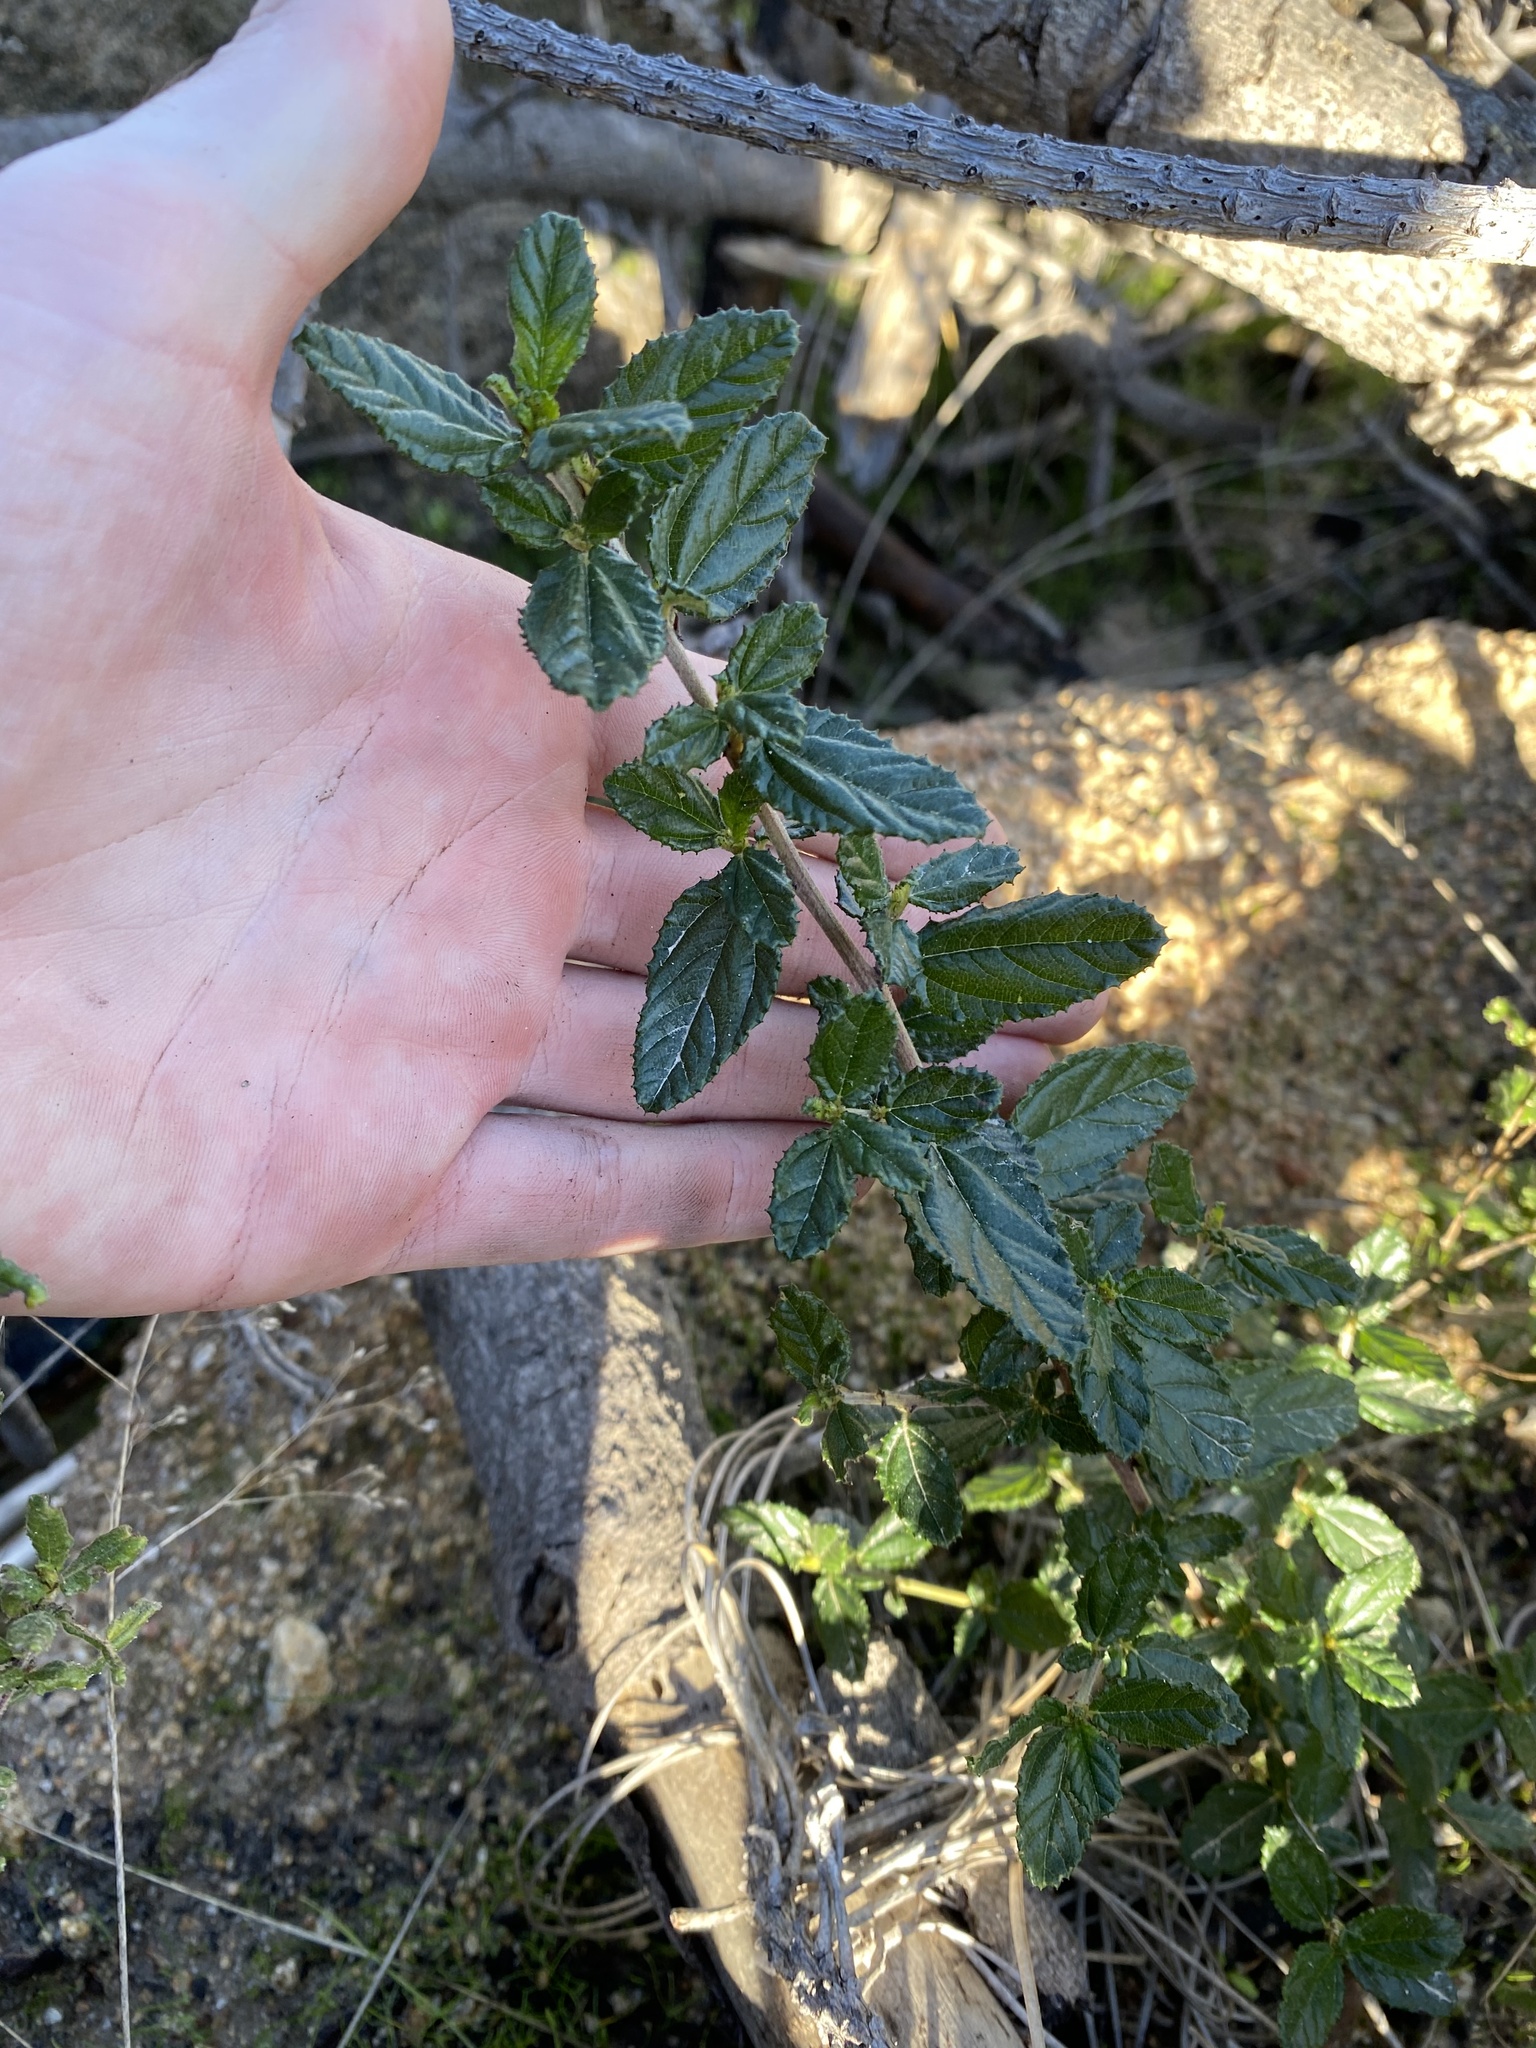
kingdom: Plantae
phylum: Tracheophyta
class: Magnoliopsida
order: Rosales
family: Rhamnaceae
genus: Ceanothus
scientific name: Ceanothus thyrsiflorus
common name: California-lilac
